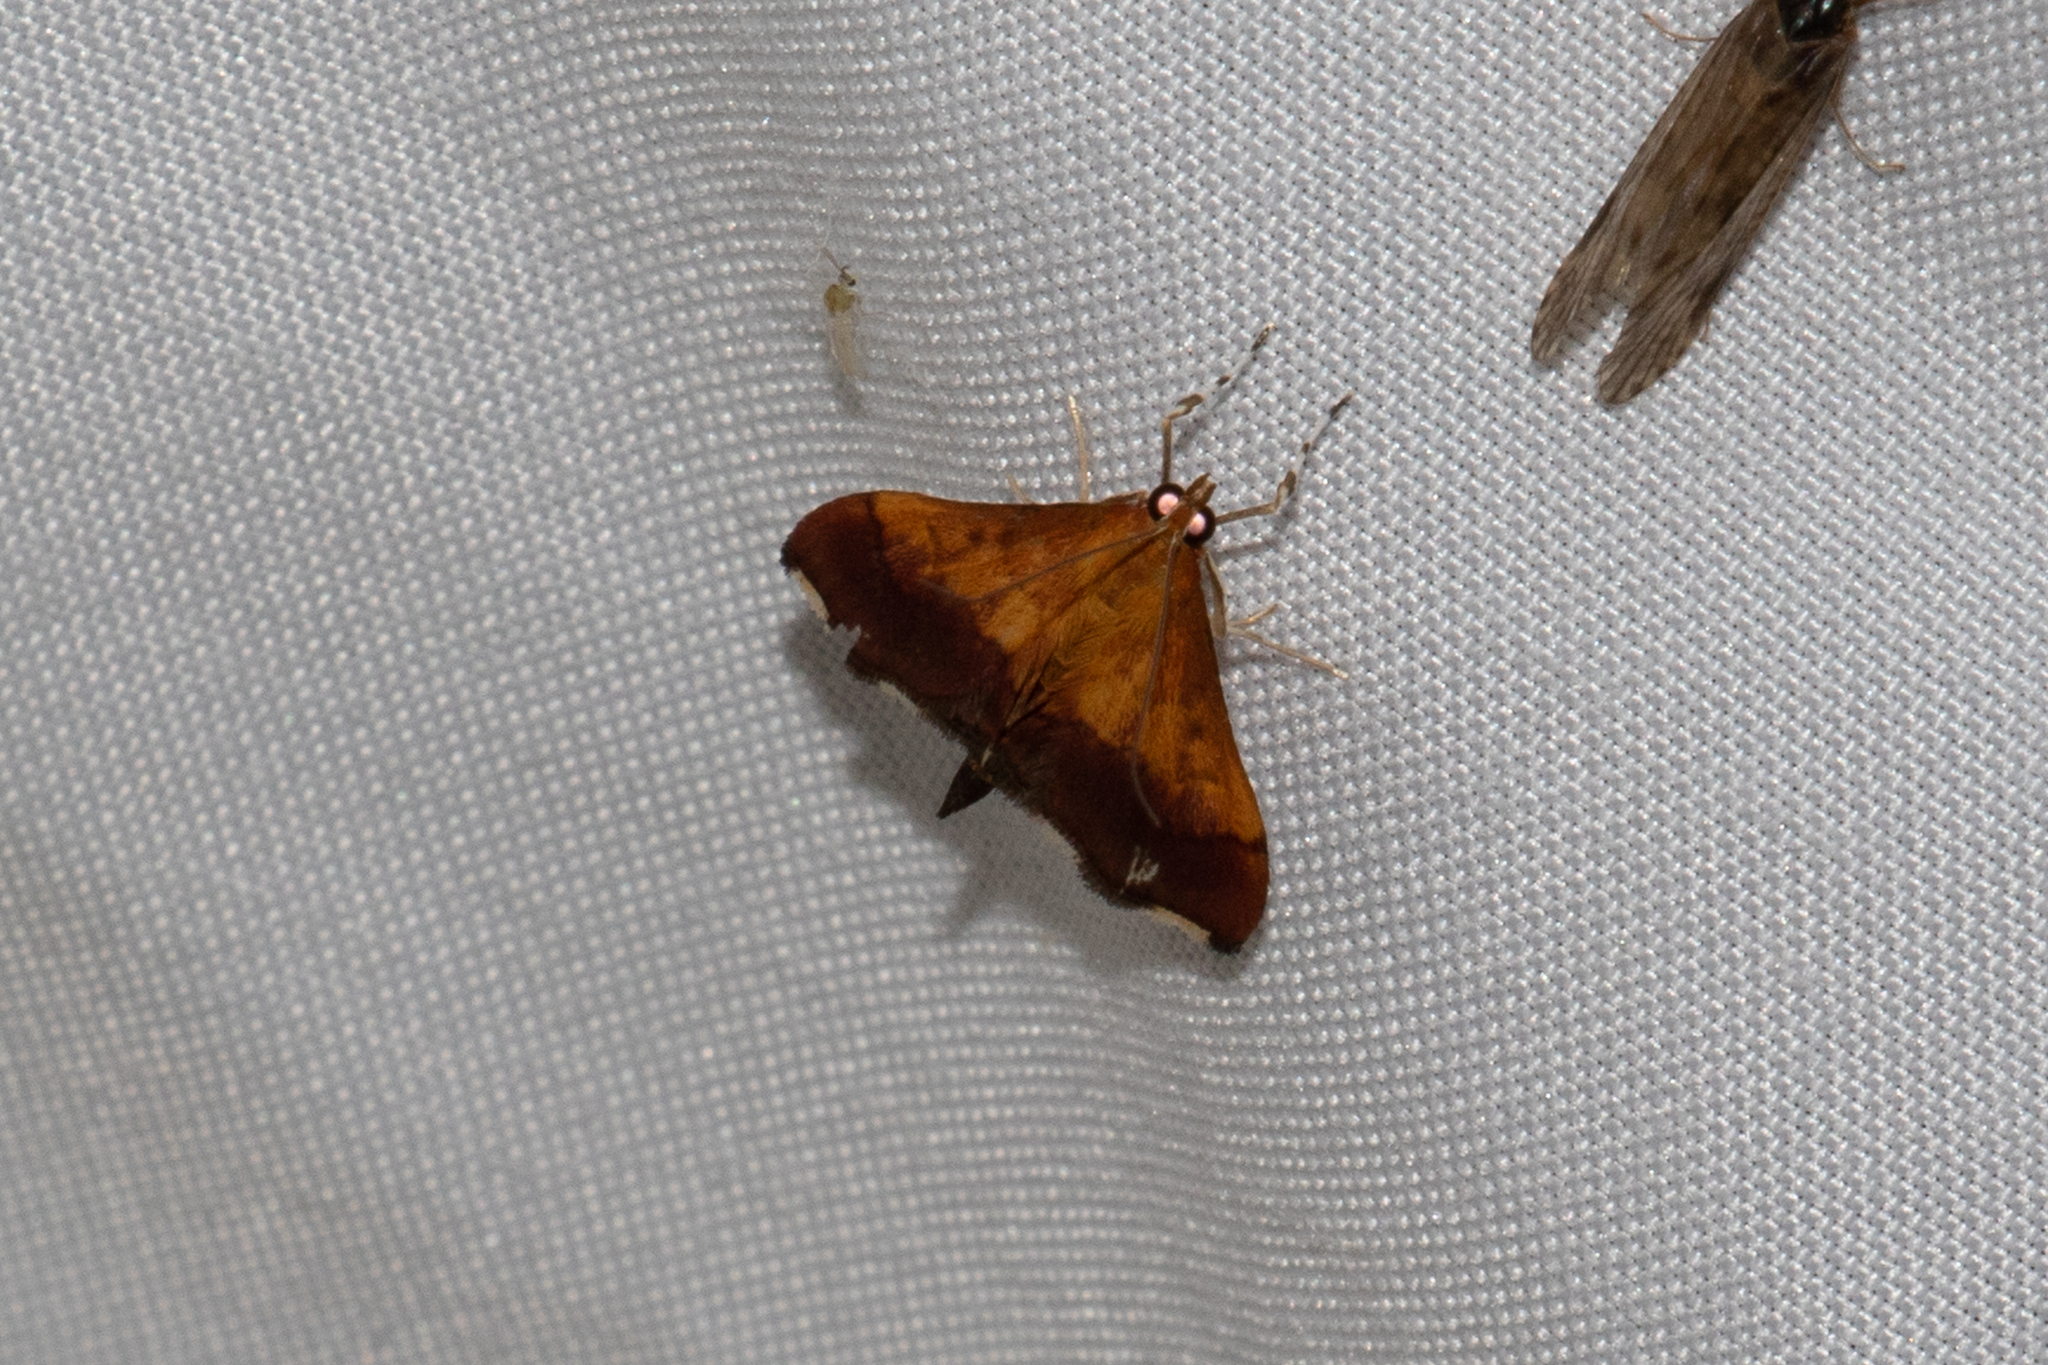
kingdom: Animalia
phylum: Arthropoda
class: Insecta
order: Lepidoptera
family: Crambidae
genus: Pyrausta
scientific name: Pyrausta bicoloralis
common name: Bicolored pyrausta moth
